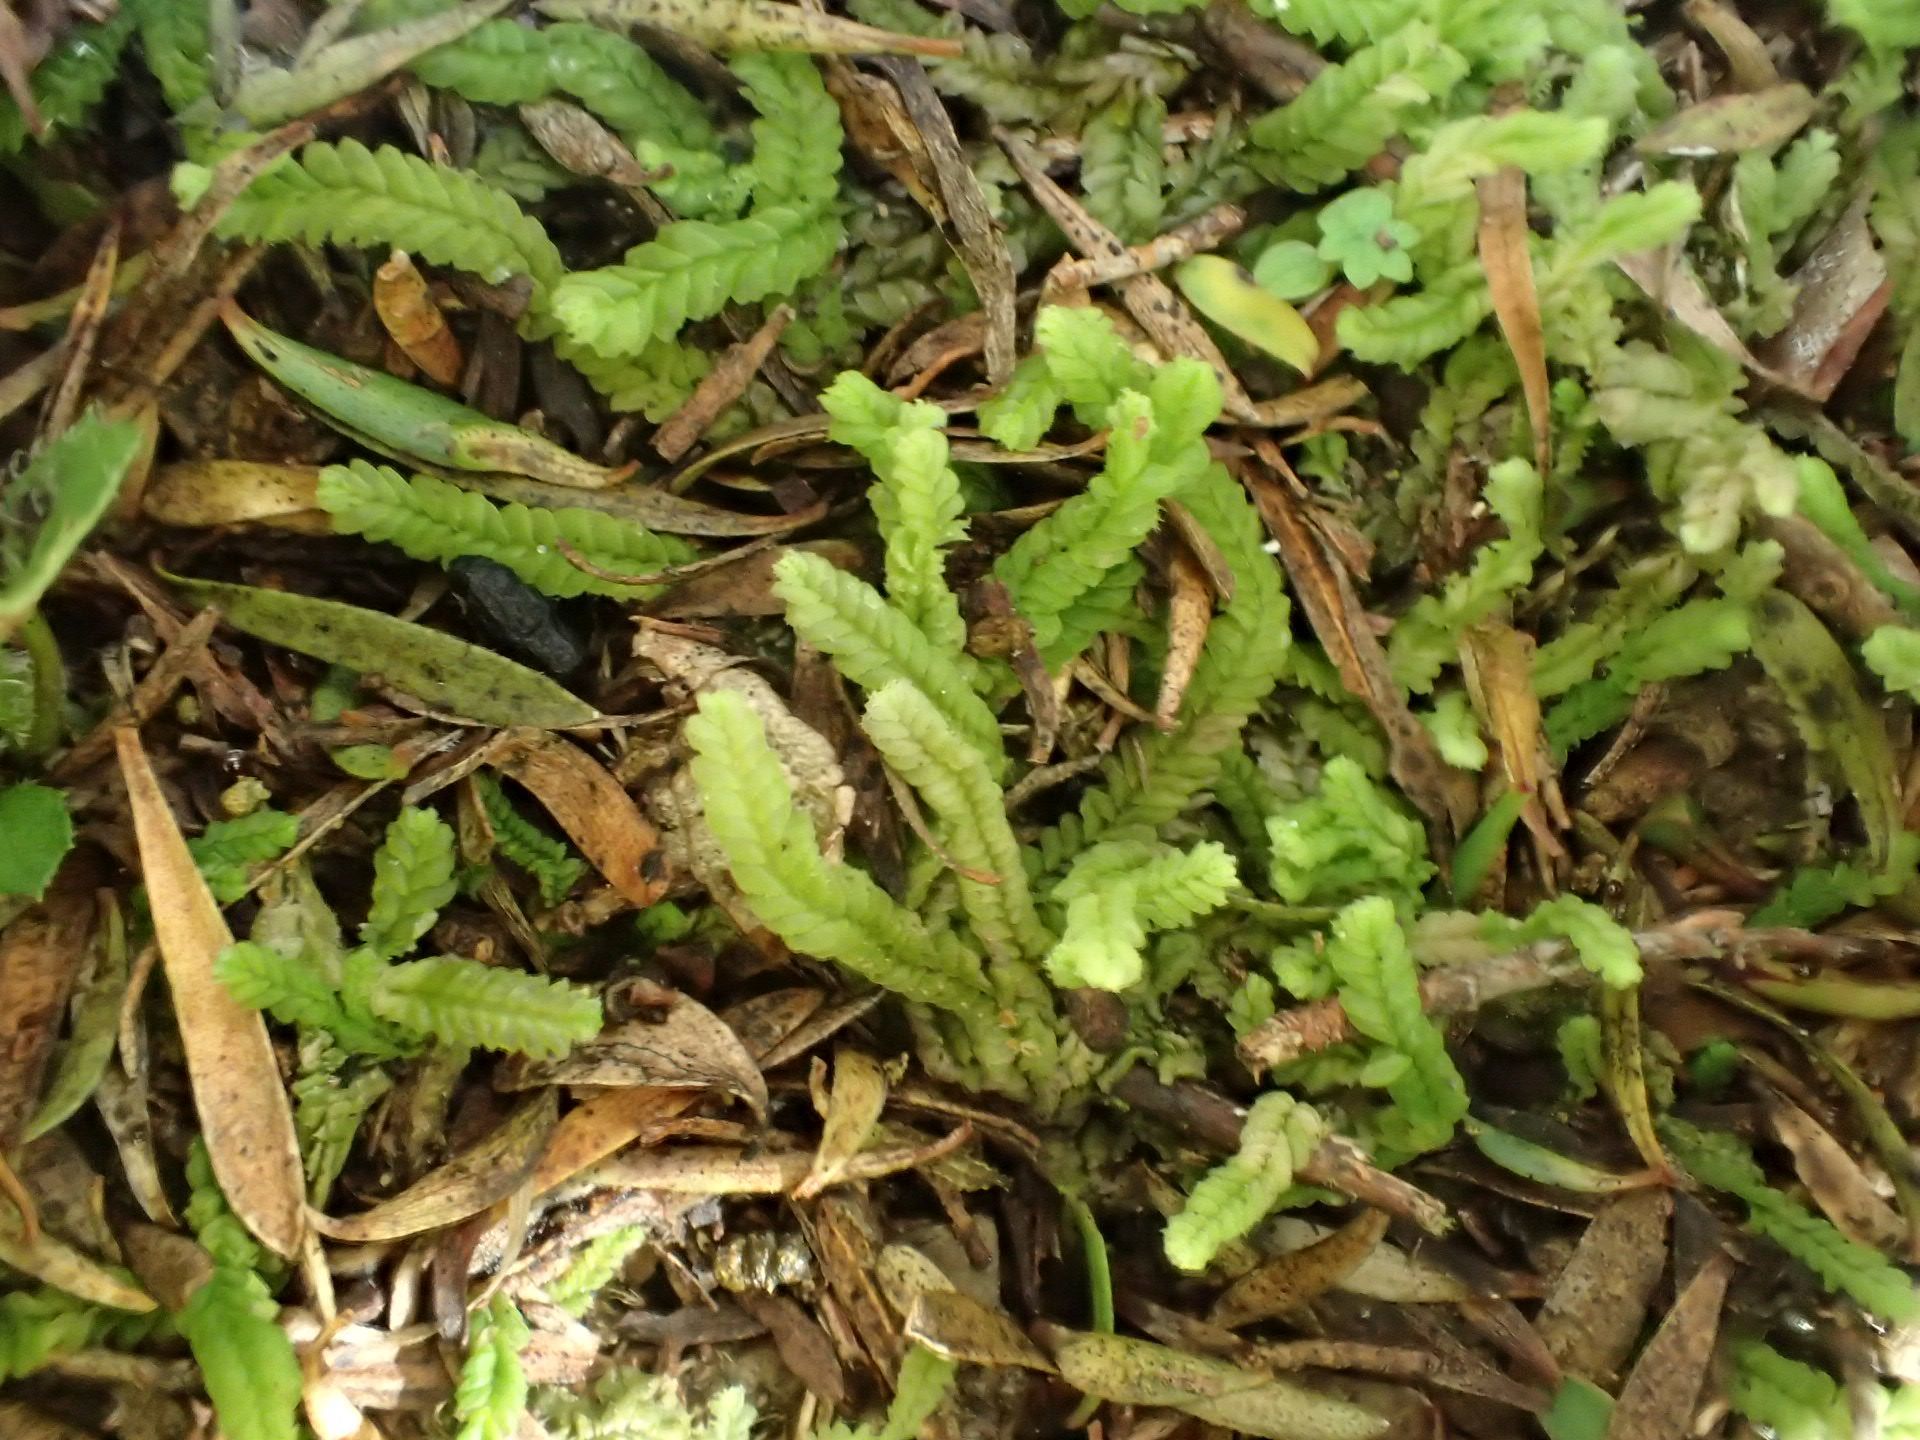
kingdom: Plantae
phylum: Marchantiophyta
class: Jungermanniopsida
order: Jungermanniales
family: Lophocoleaceae
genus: Lophocolea
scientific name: Lophocolea villosa
